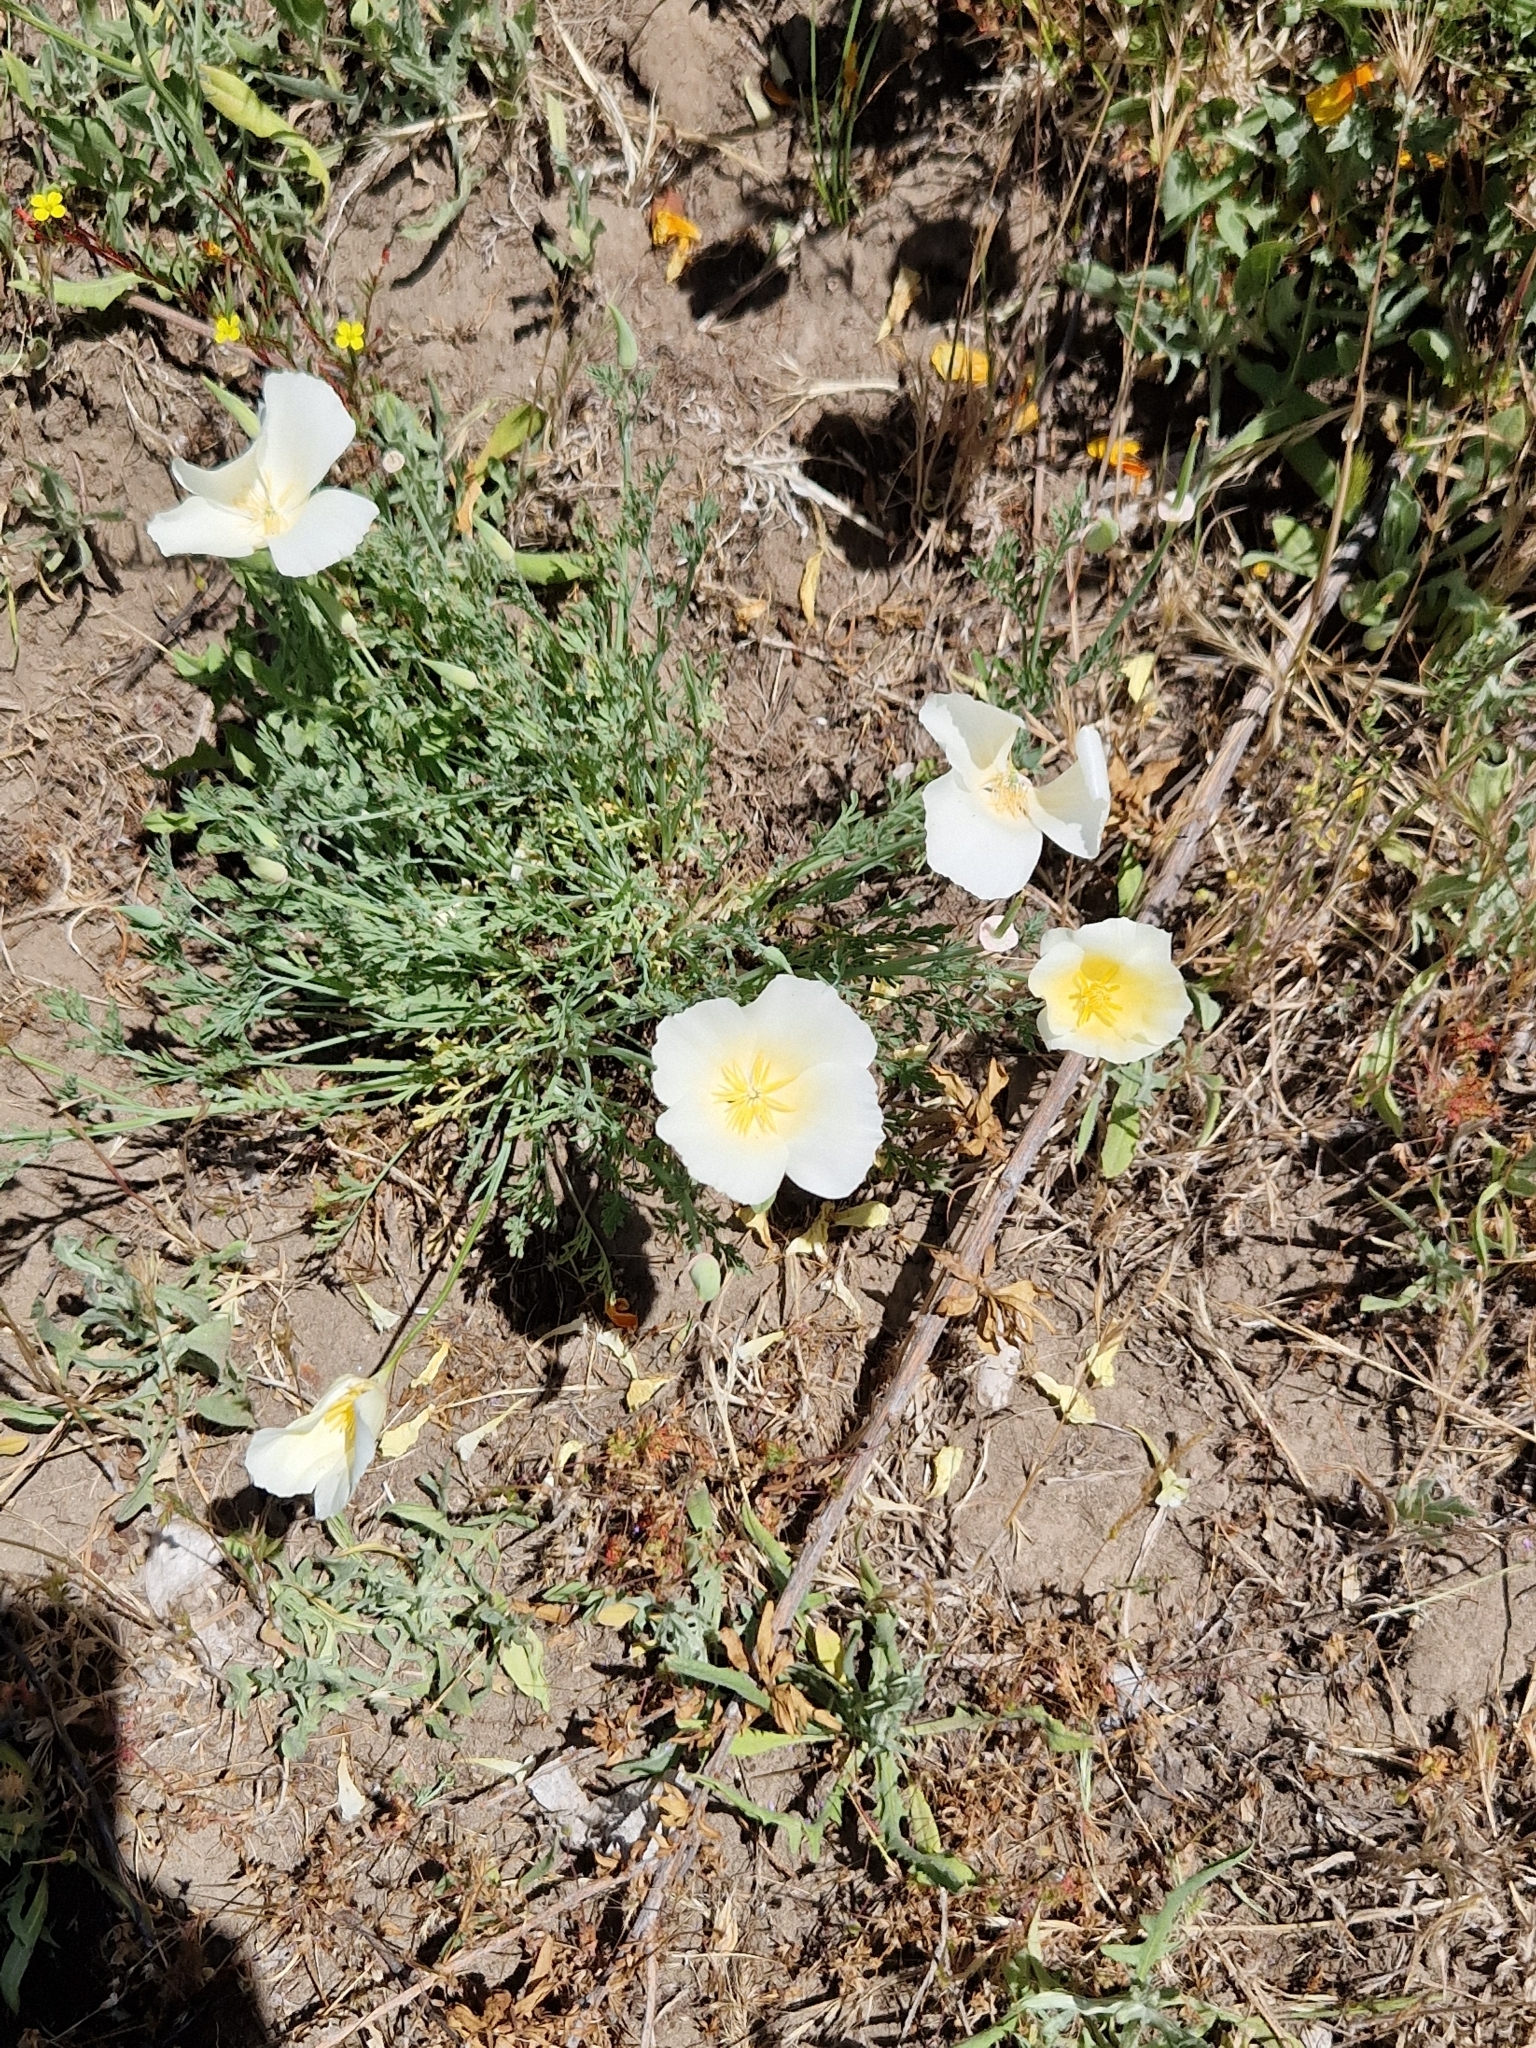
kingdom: Plantae
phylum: Tracheophyta
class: Magnoliopsida
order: Ranunculales
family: Papaveraceae
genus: Eschscholzia
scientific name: Eschscholzia californica
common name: California poppy
